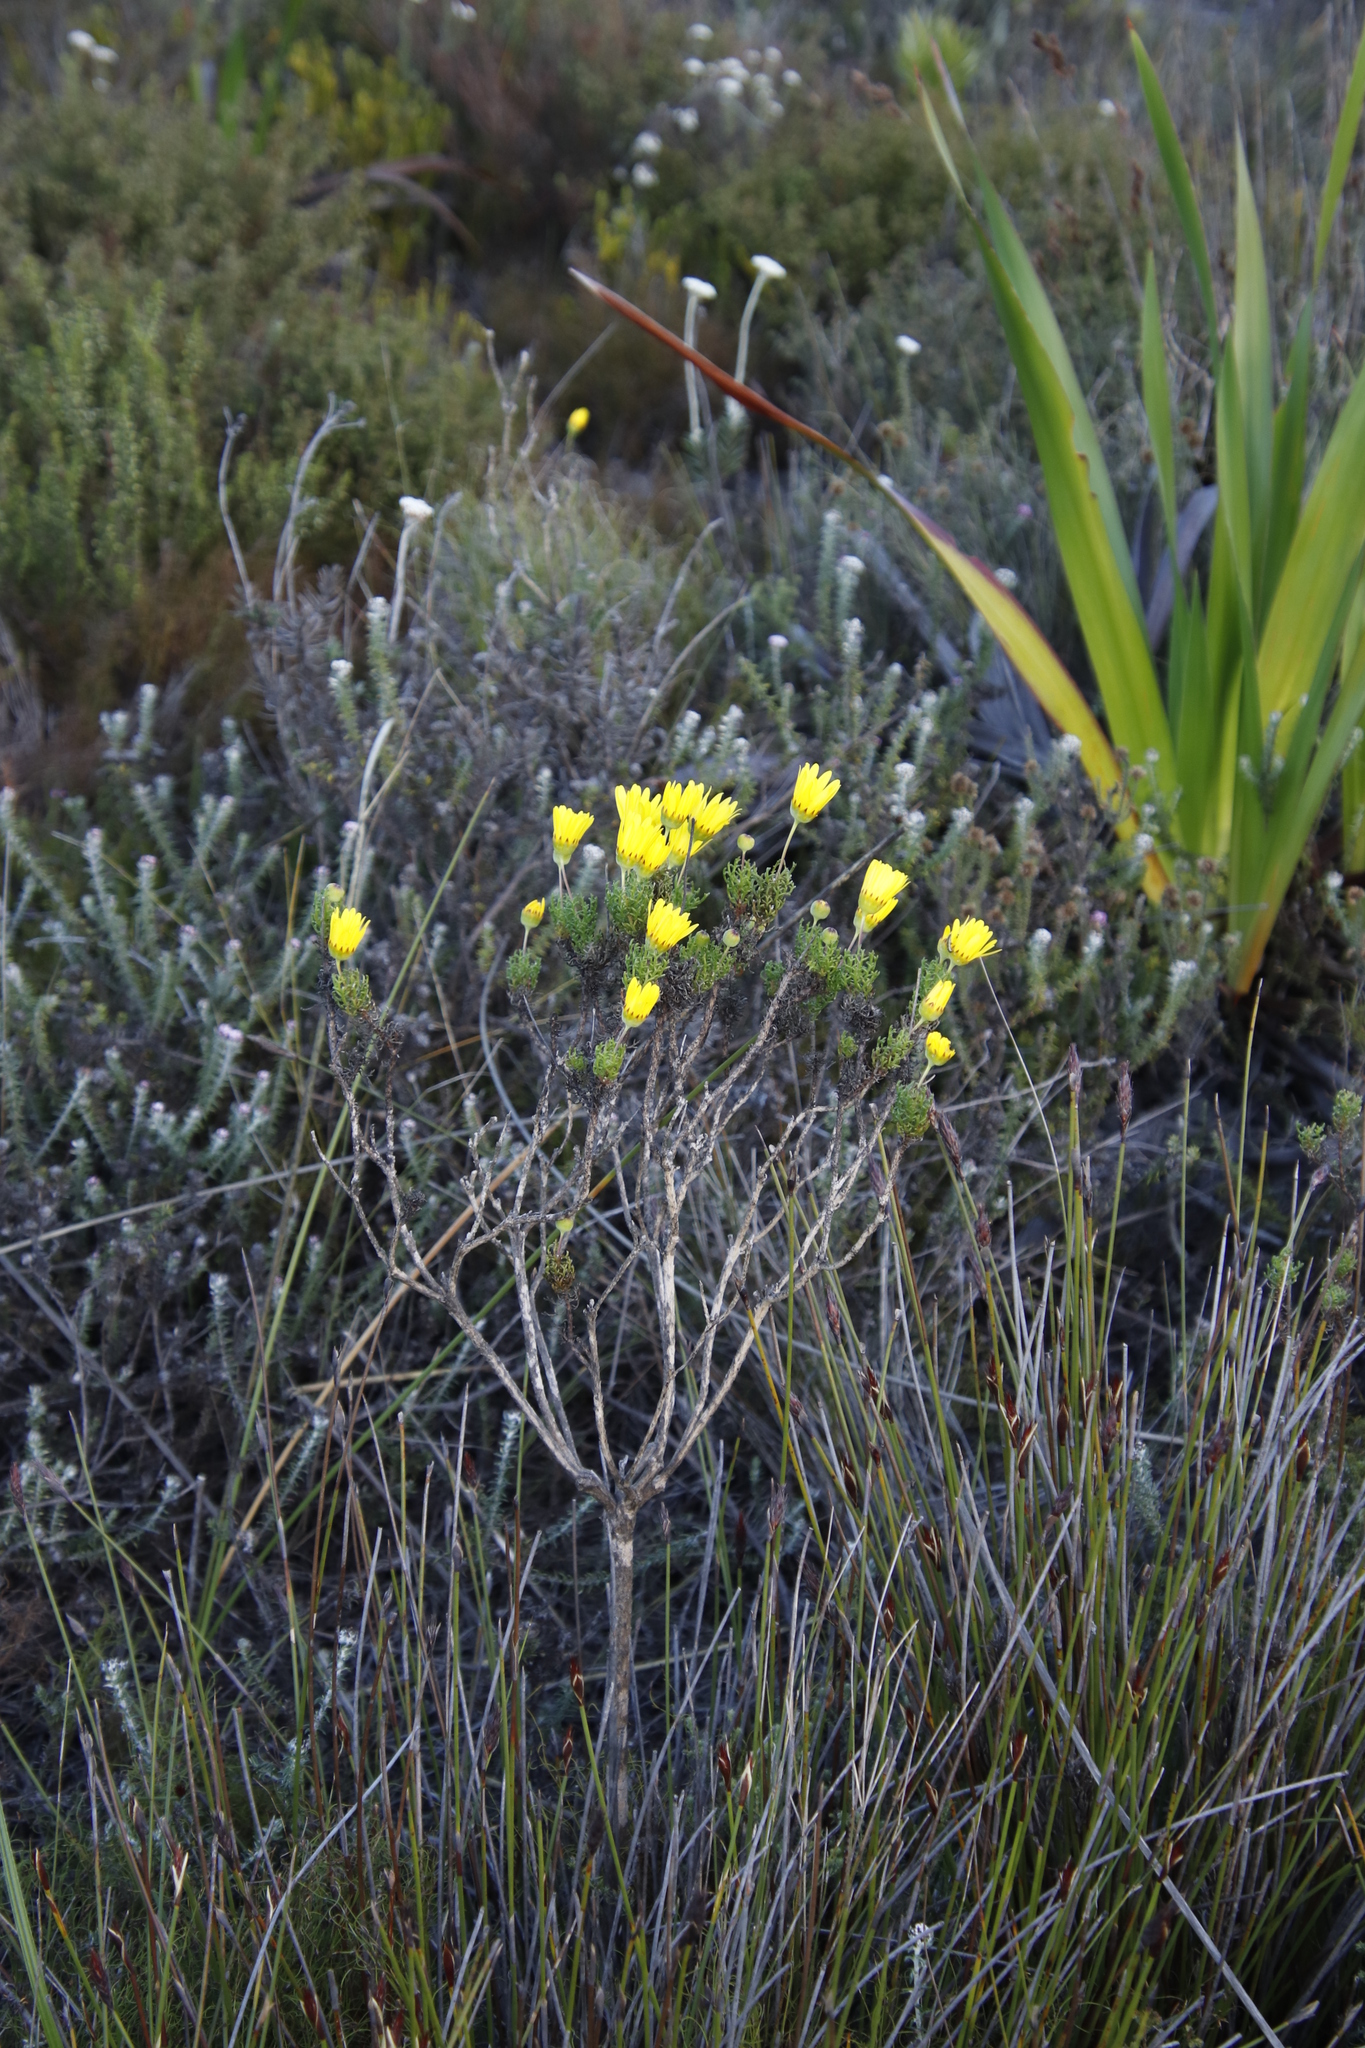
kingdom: Plantae
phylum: Tracheophyta
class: Magnoliopsida
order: Asterales
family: Asteraceae
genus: Euryops
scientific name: Euryops abrotanifolius
